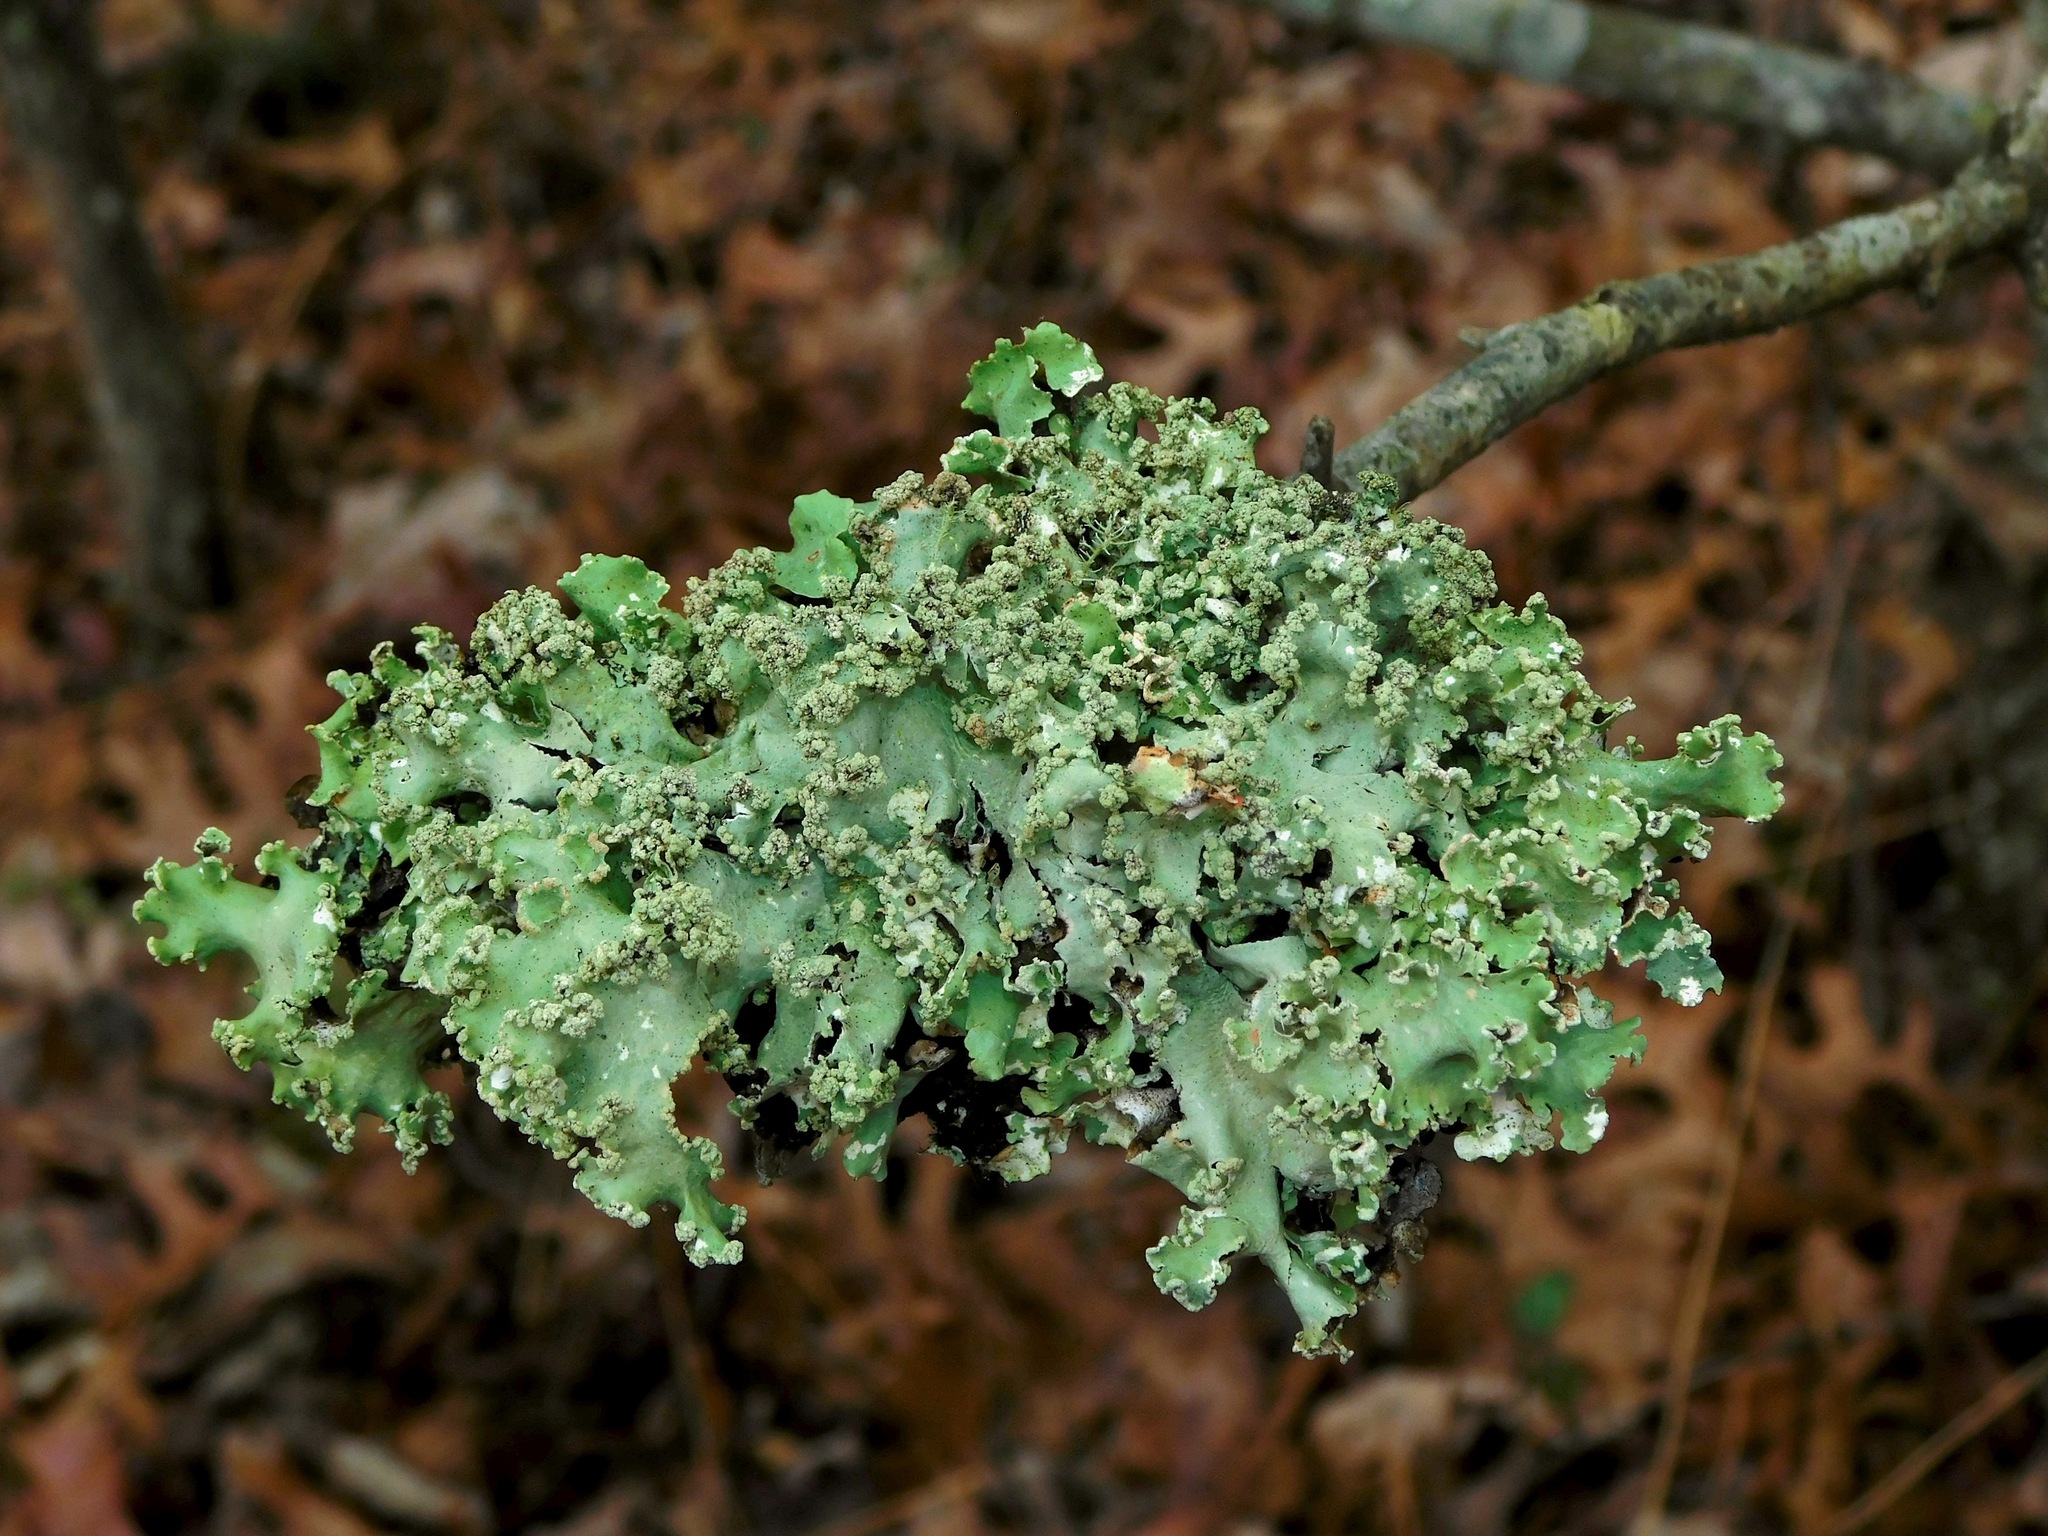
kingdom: Fungi
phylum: Ascomycota
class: Lecanoromycetes
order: Lecanorales
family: Parmeliaceae
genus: Parmotrema
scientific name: Parmotrema margaritatum
